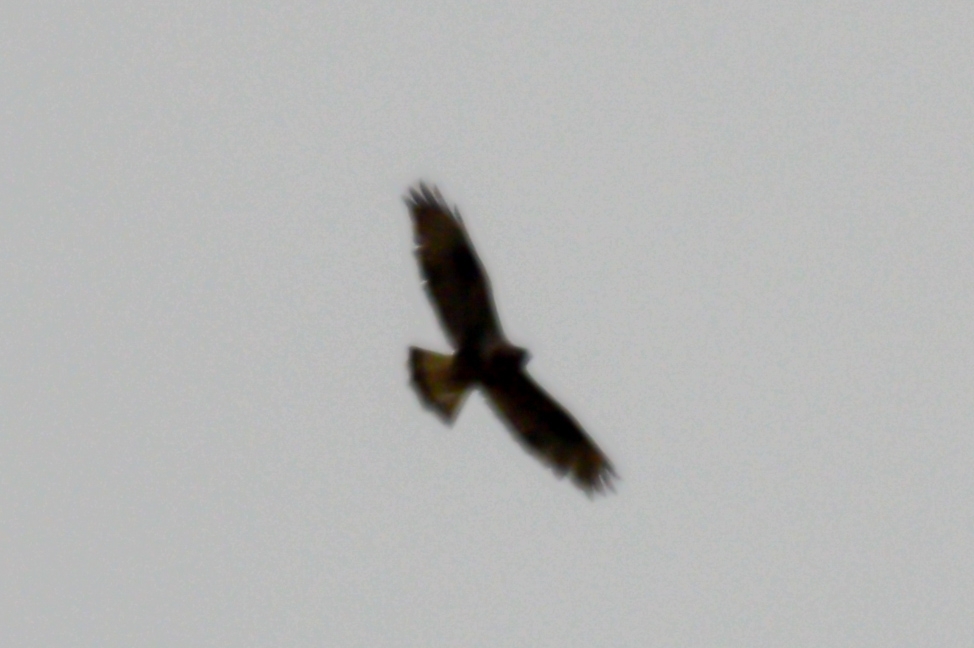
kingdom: Animalia
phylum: Chordata
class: Aves
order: Accipitriformes
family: Accipitridae
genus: Buteo
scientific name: Buteo lagopus
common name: Rough-legged buzzard
